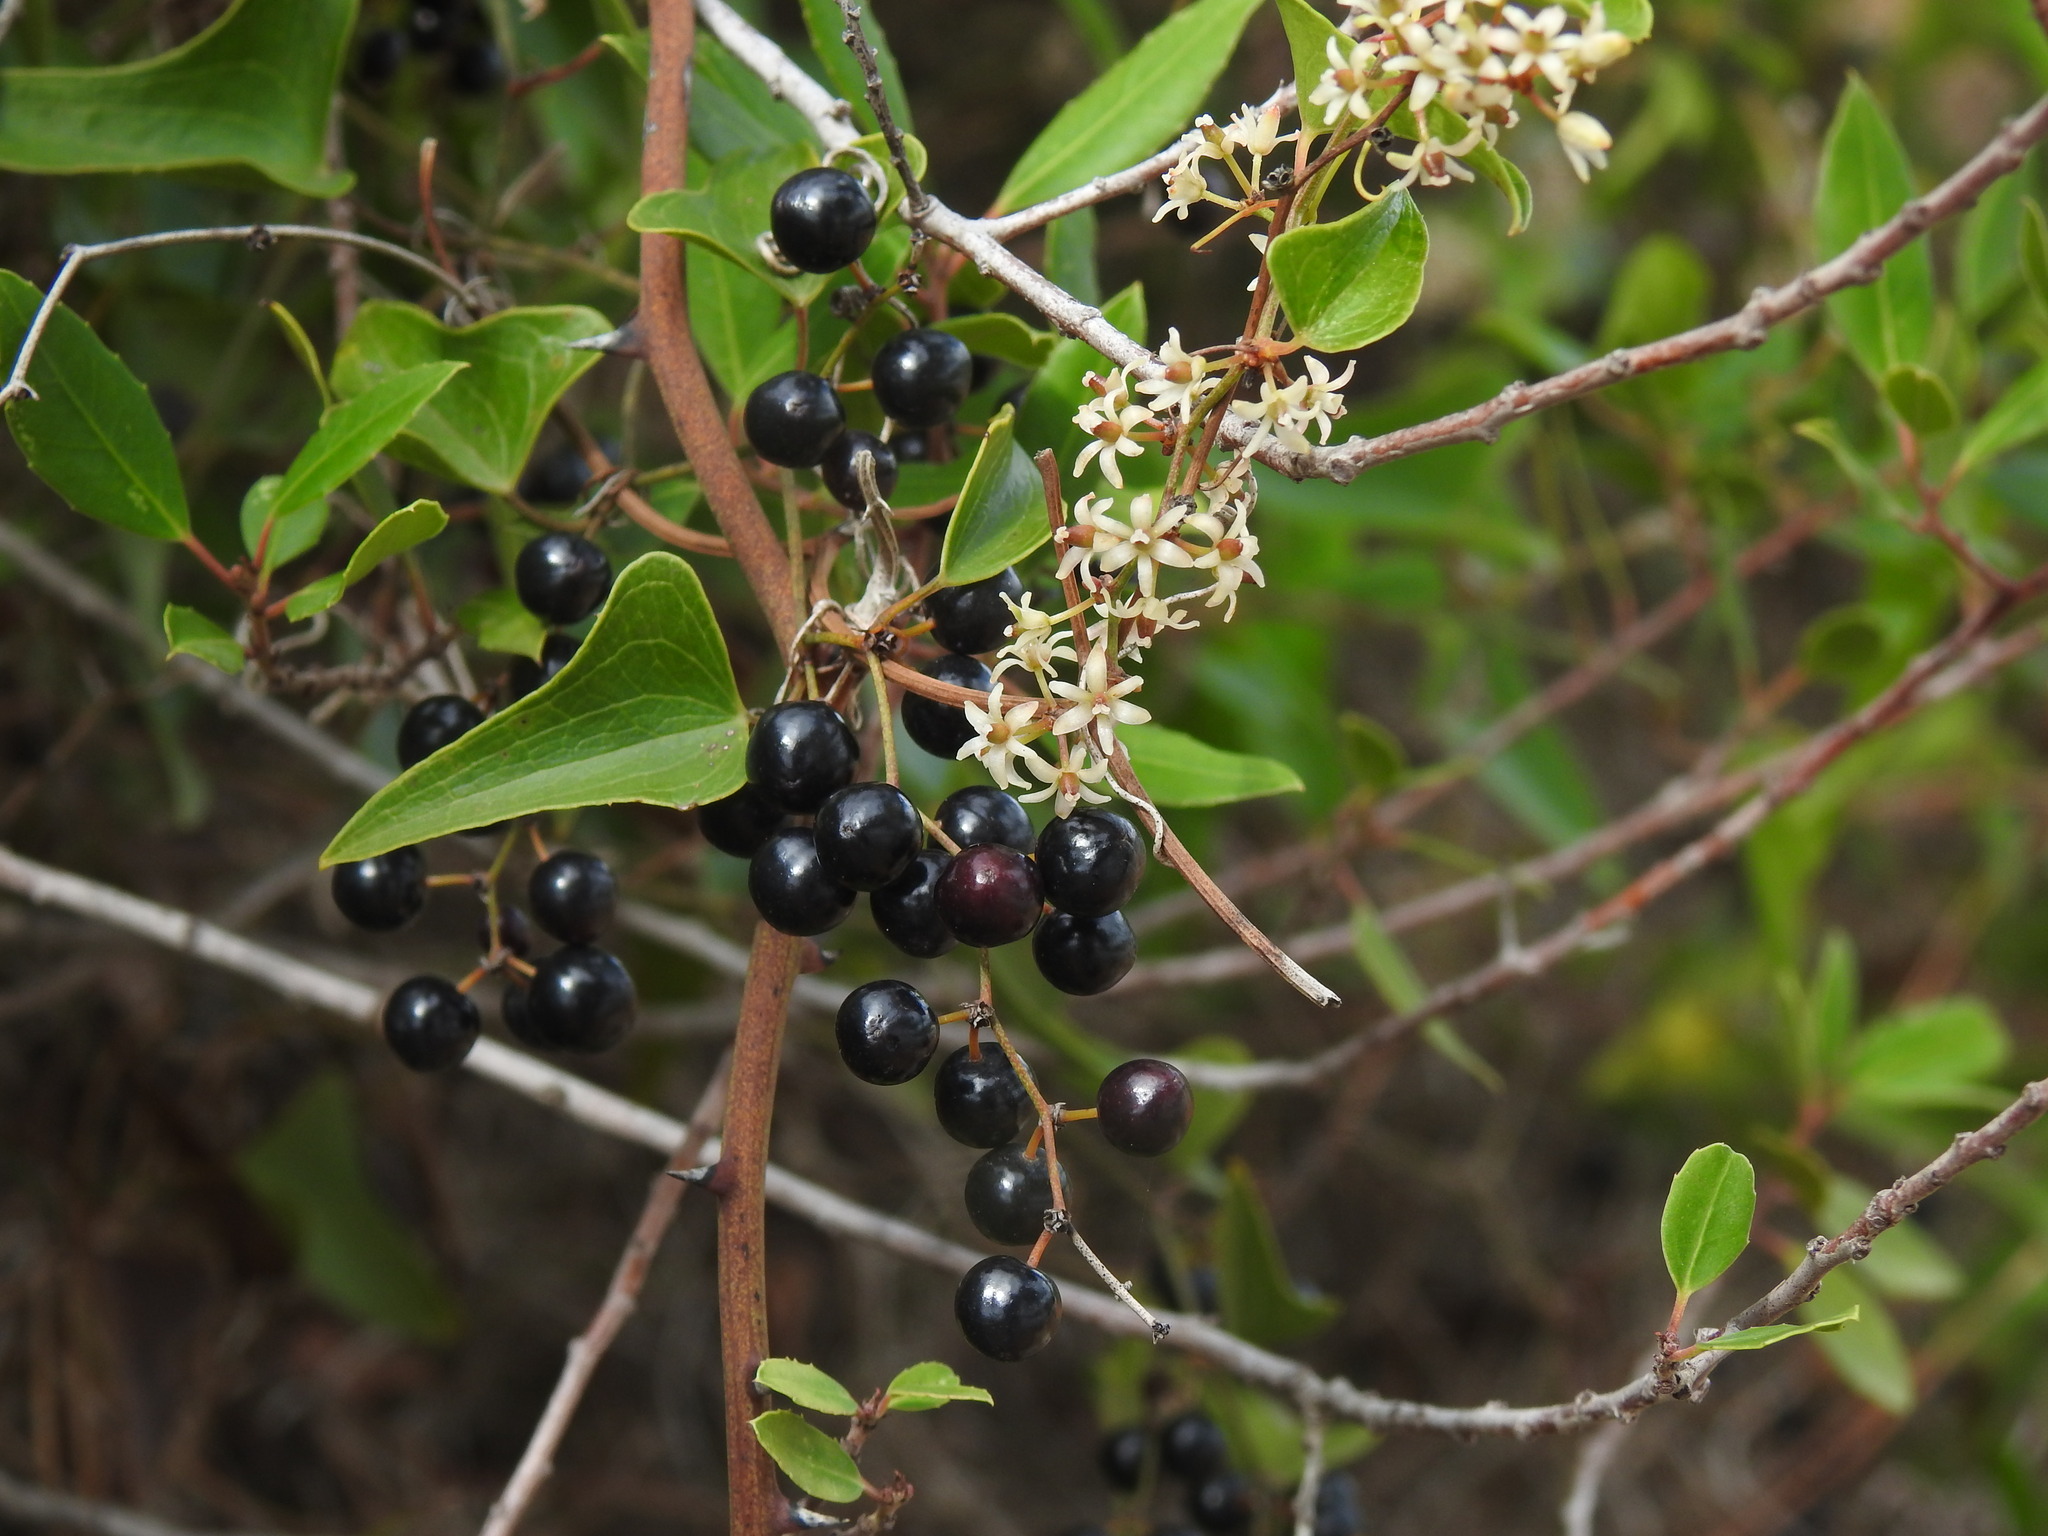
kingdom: Plantae
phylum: Tracheophyta
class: Liliopsida
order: Liliales
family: Smilacaceae
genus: Smilax
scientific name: Smilax aspera
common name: Common smilax
